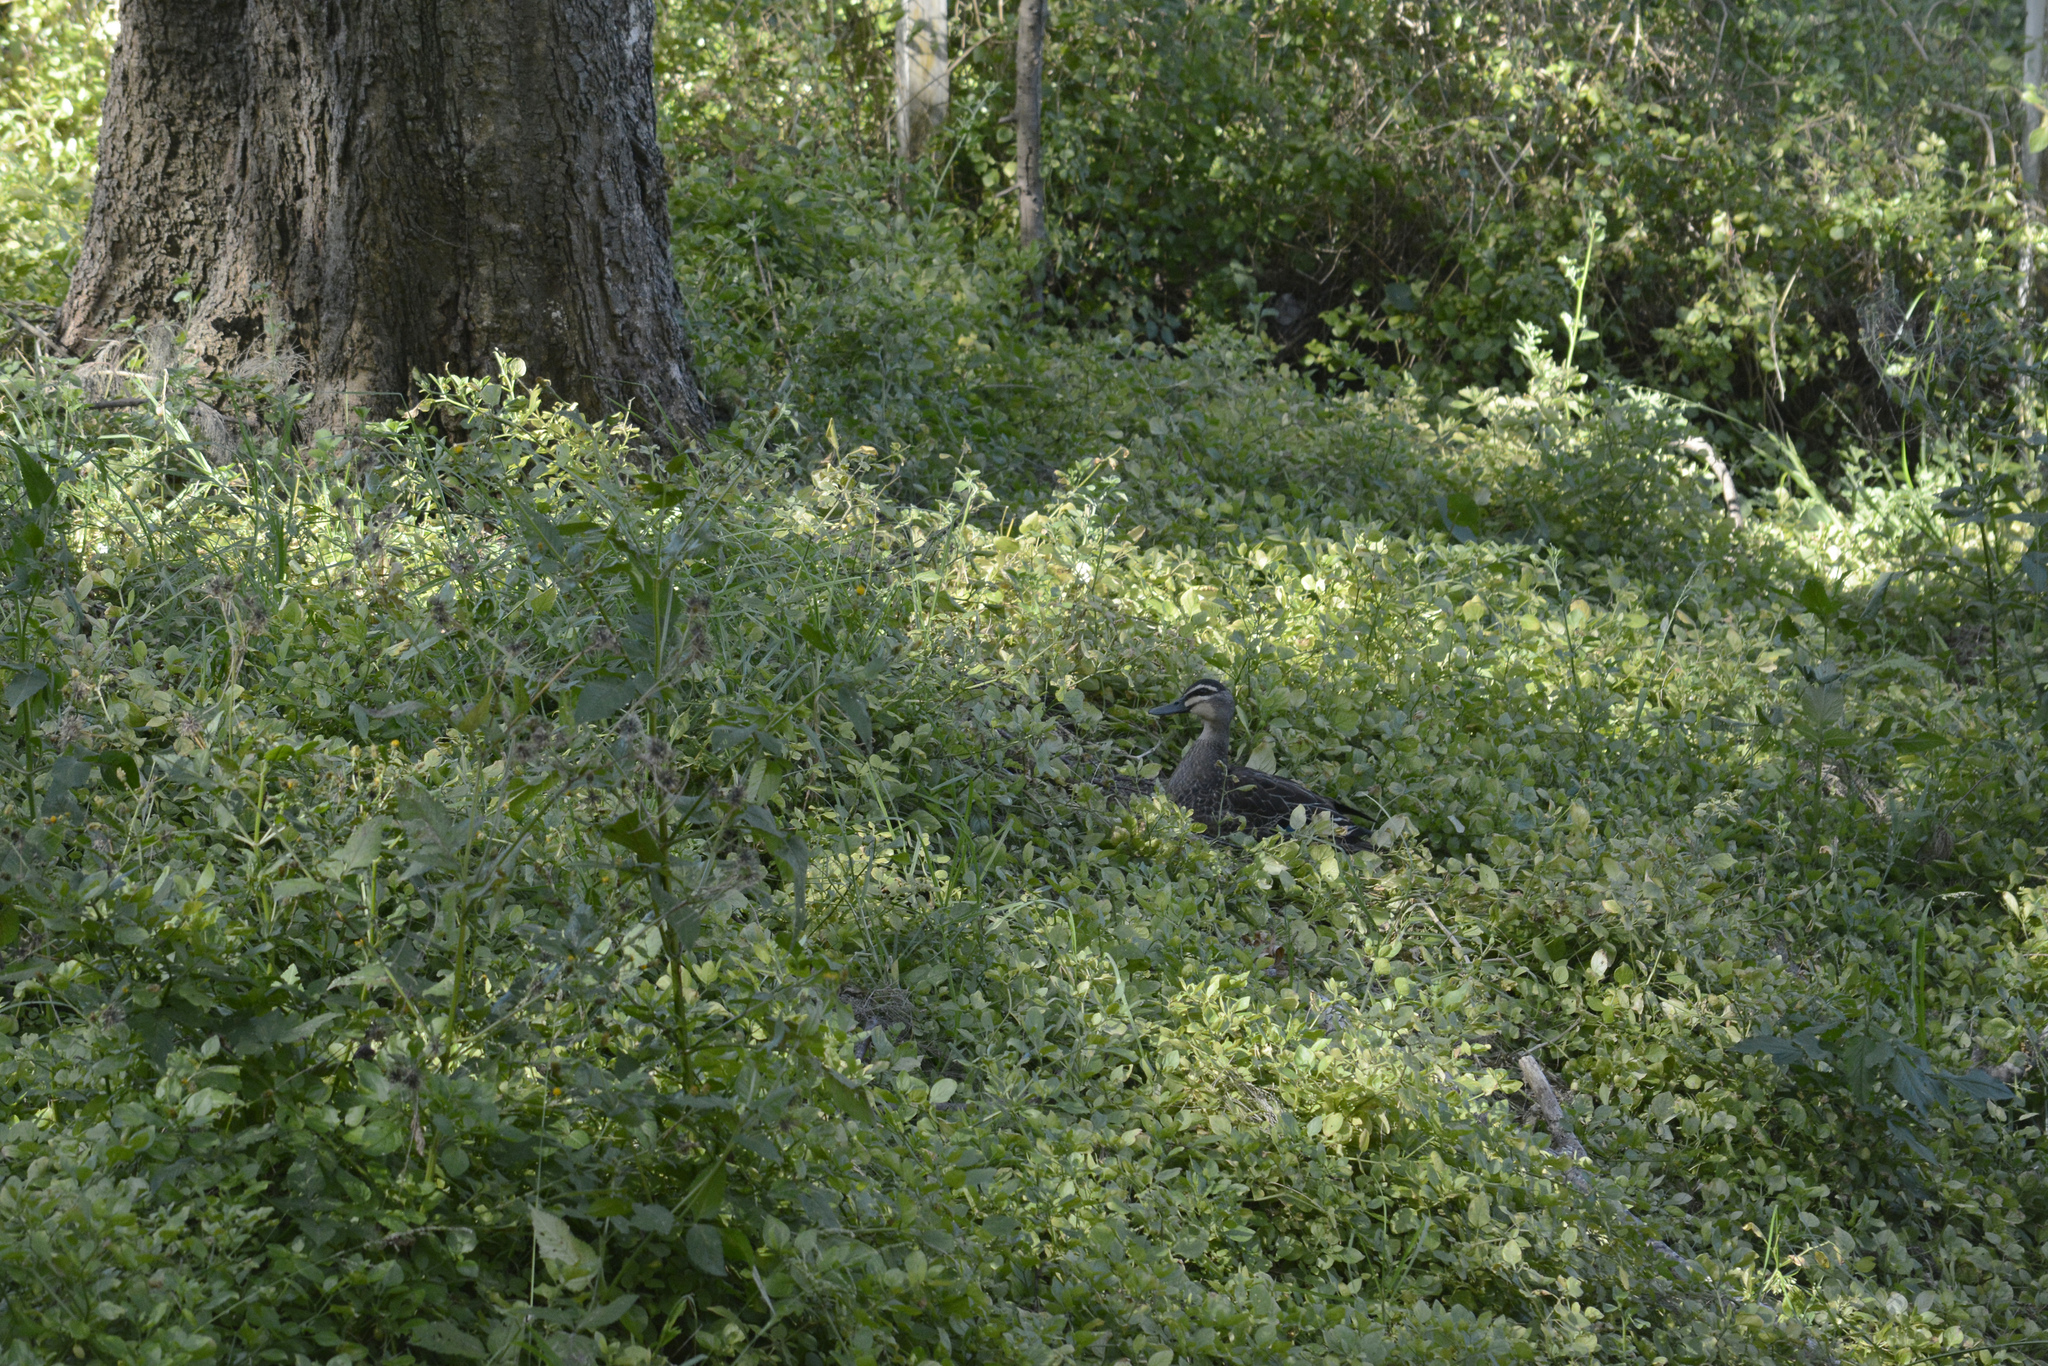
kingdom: Animalia
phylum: Chordata
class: Aves
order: Anseriformes
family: Anatidae
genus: Anas
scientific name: Anas superciliosa
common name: Pacific black duck
